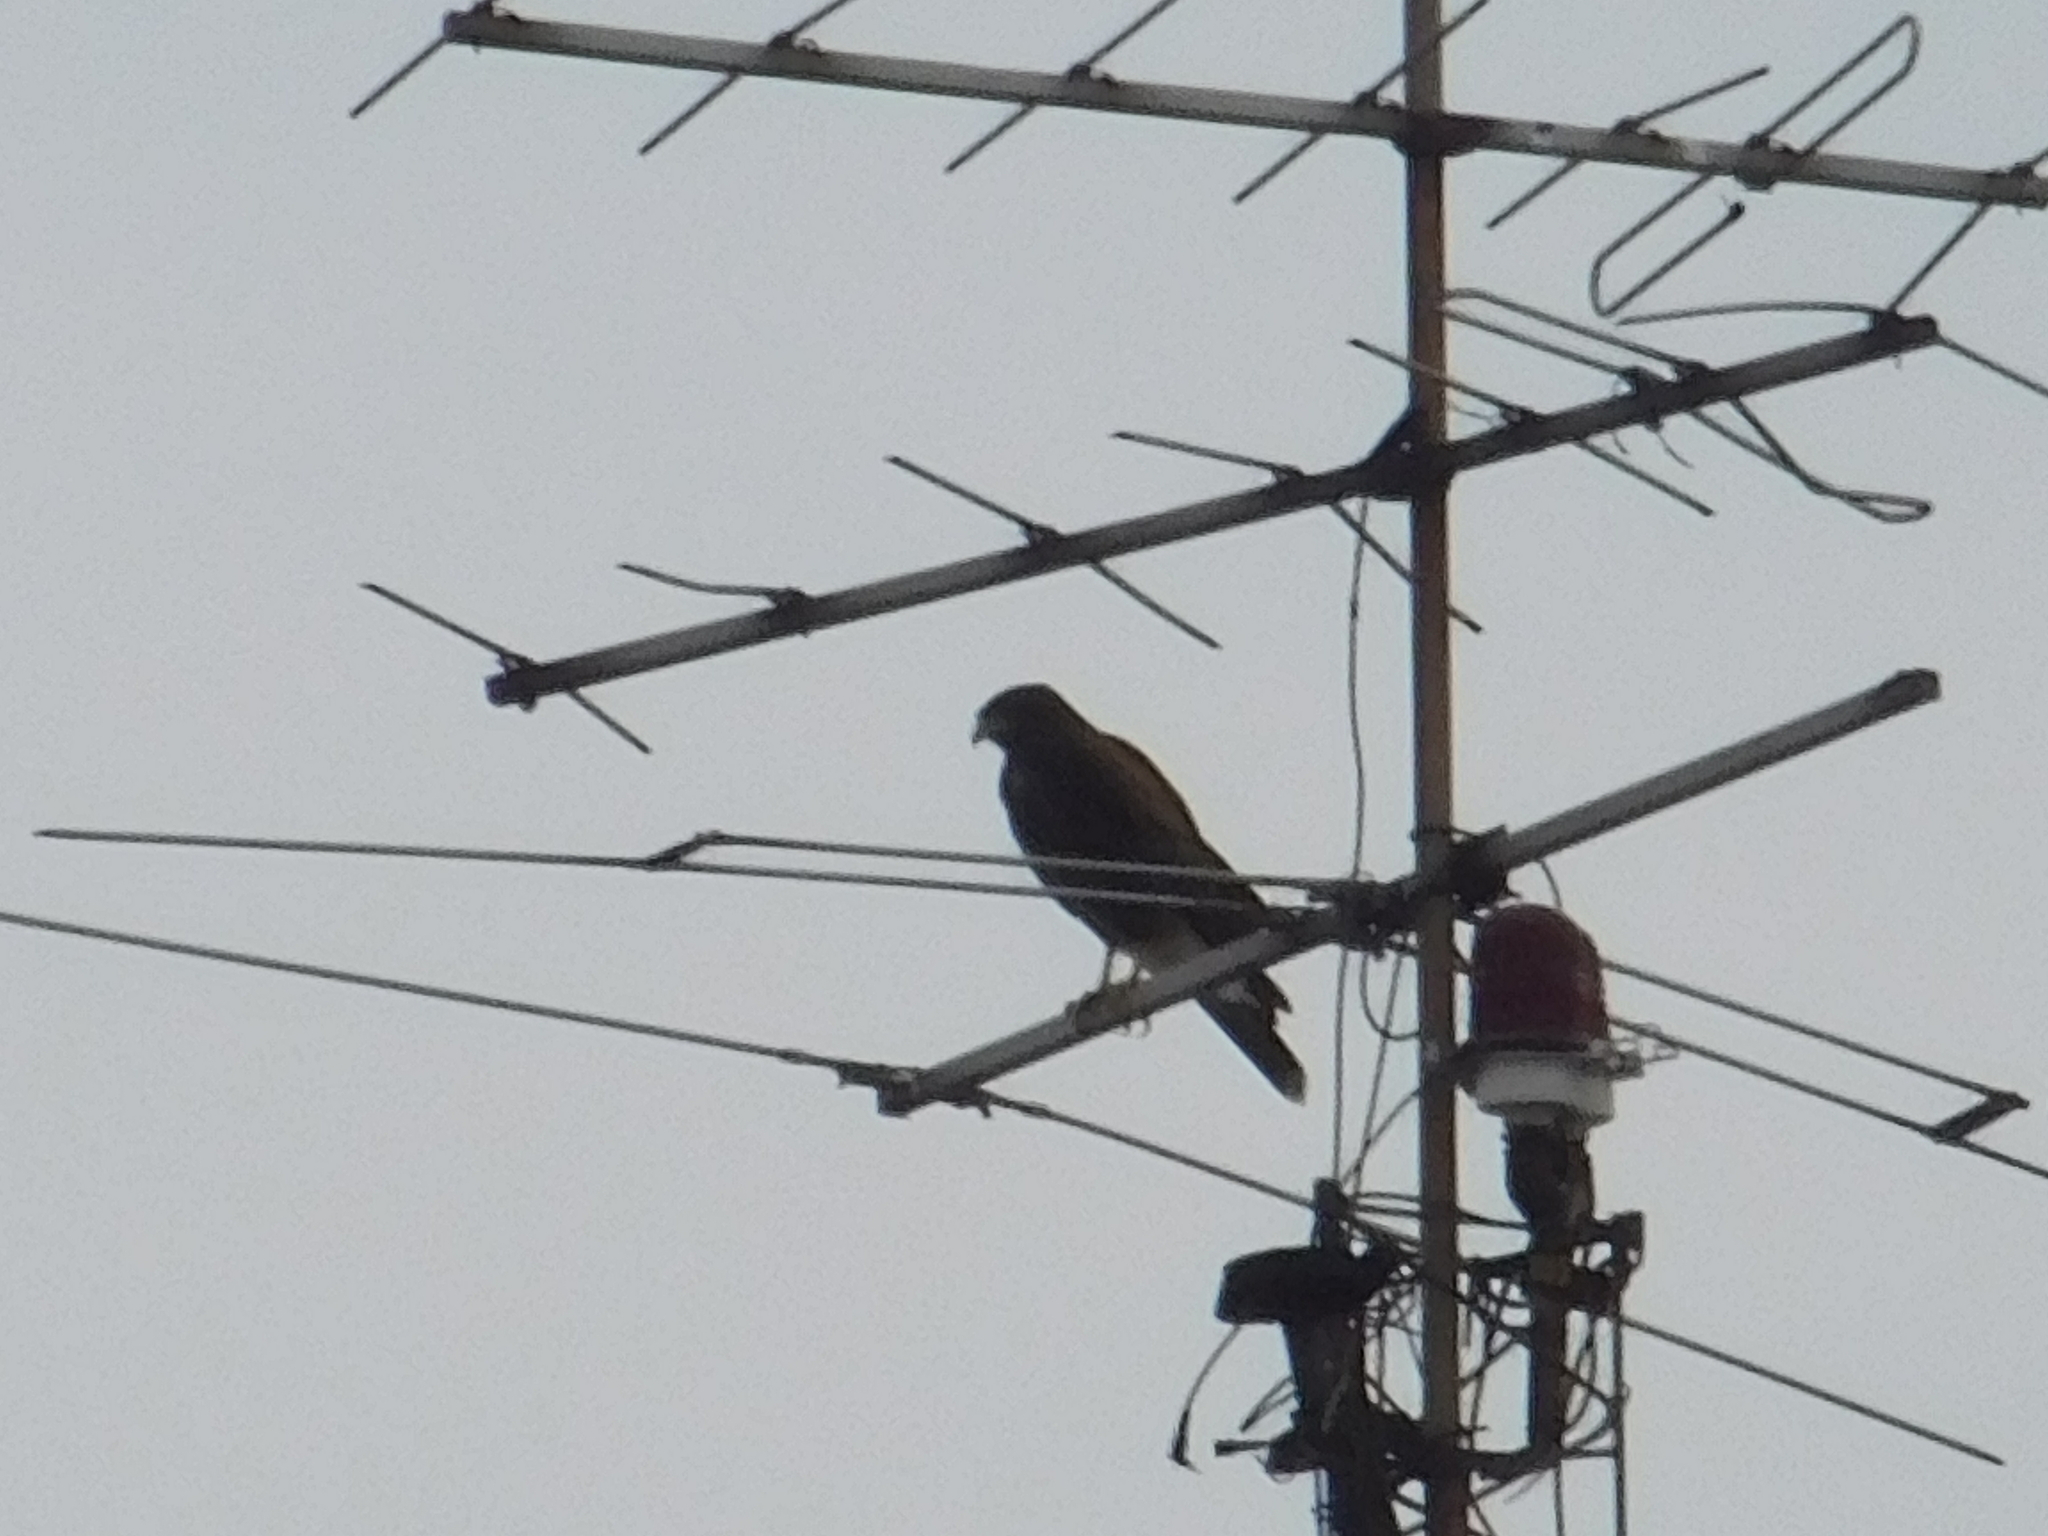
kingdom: Animalia
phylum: Chordata
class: Aves
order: Accipitriformes
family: Accipitridae
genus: Parabuteo
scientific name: Parabuteo unicinctus
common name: Harris's hawk
